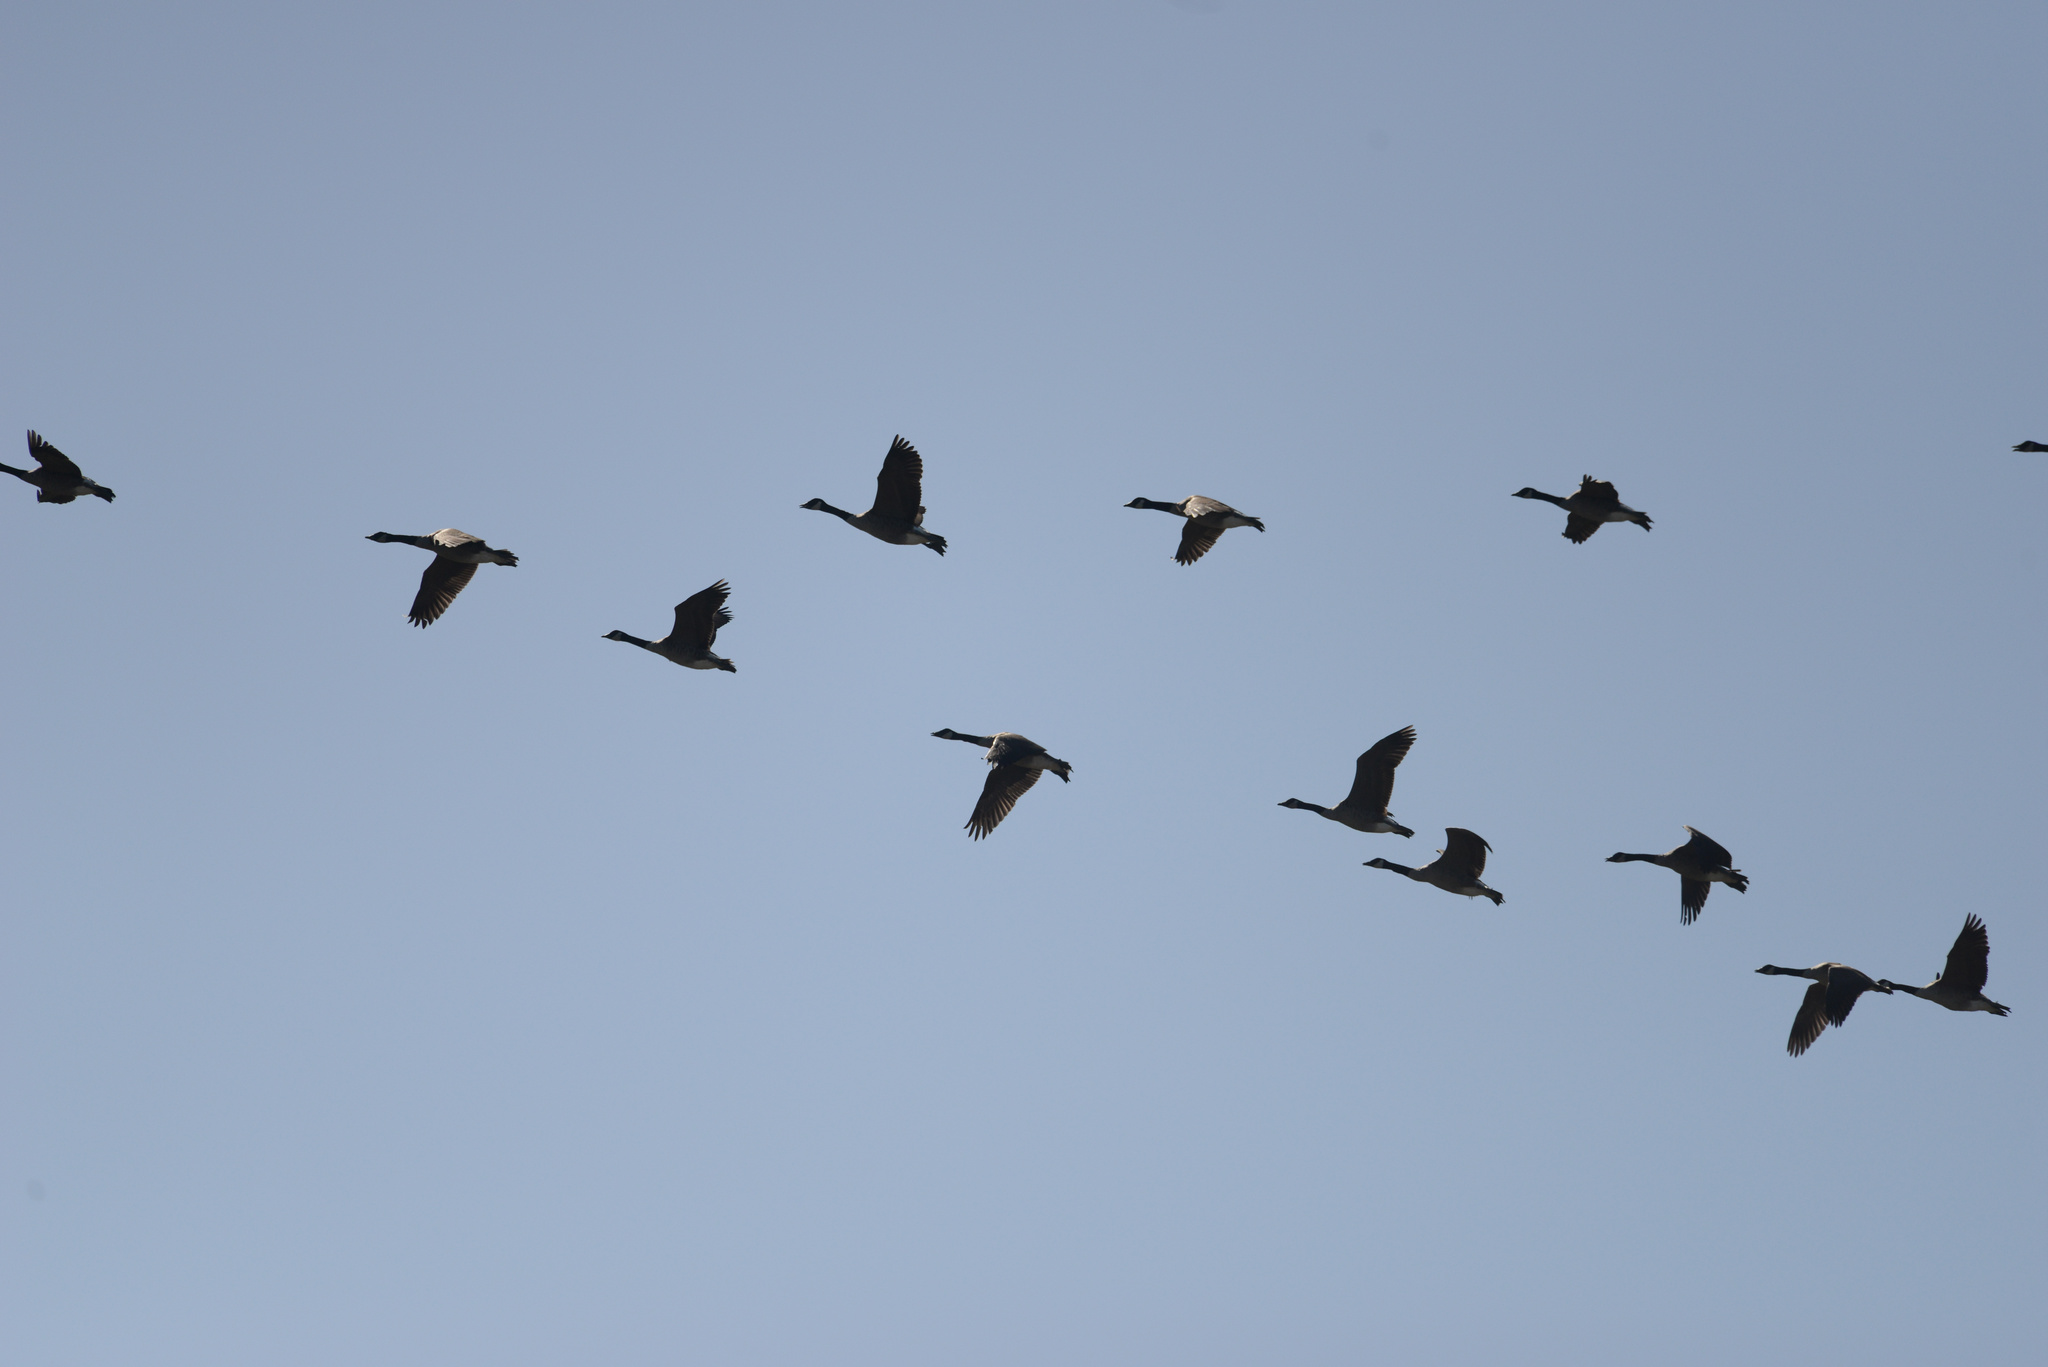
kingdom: Animalia
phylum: Chordata
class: Aves
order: Anseriformes
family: Anatidae
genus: Branta
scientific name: Branta canadensis
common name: Canada goose
